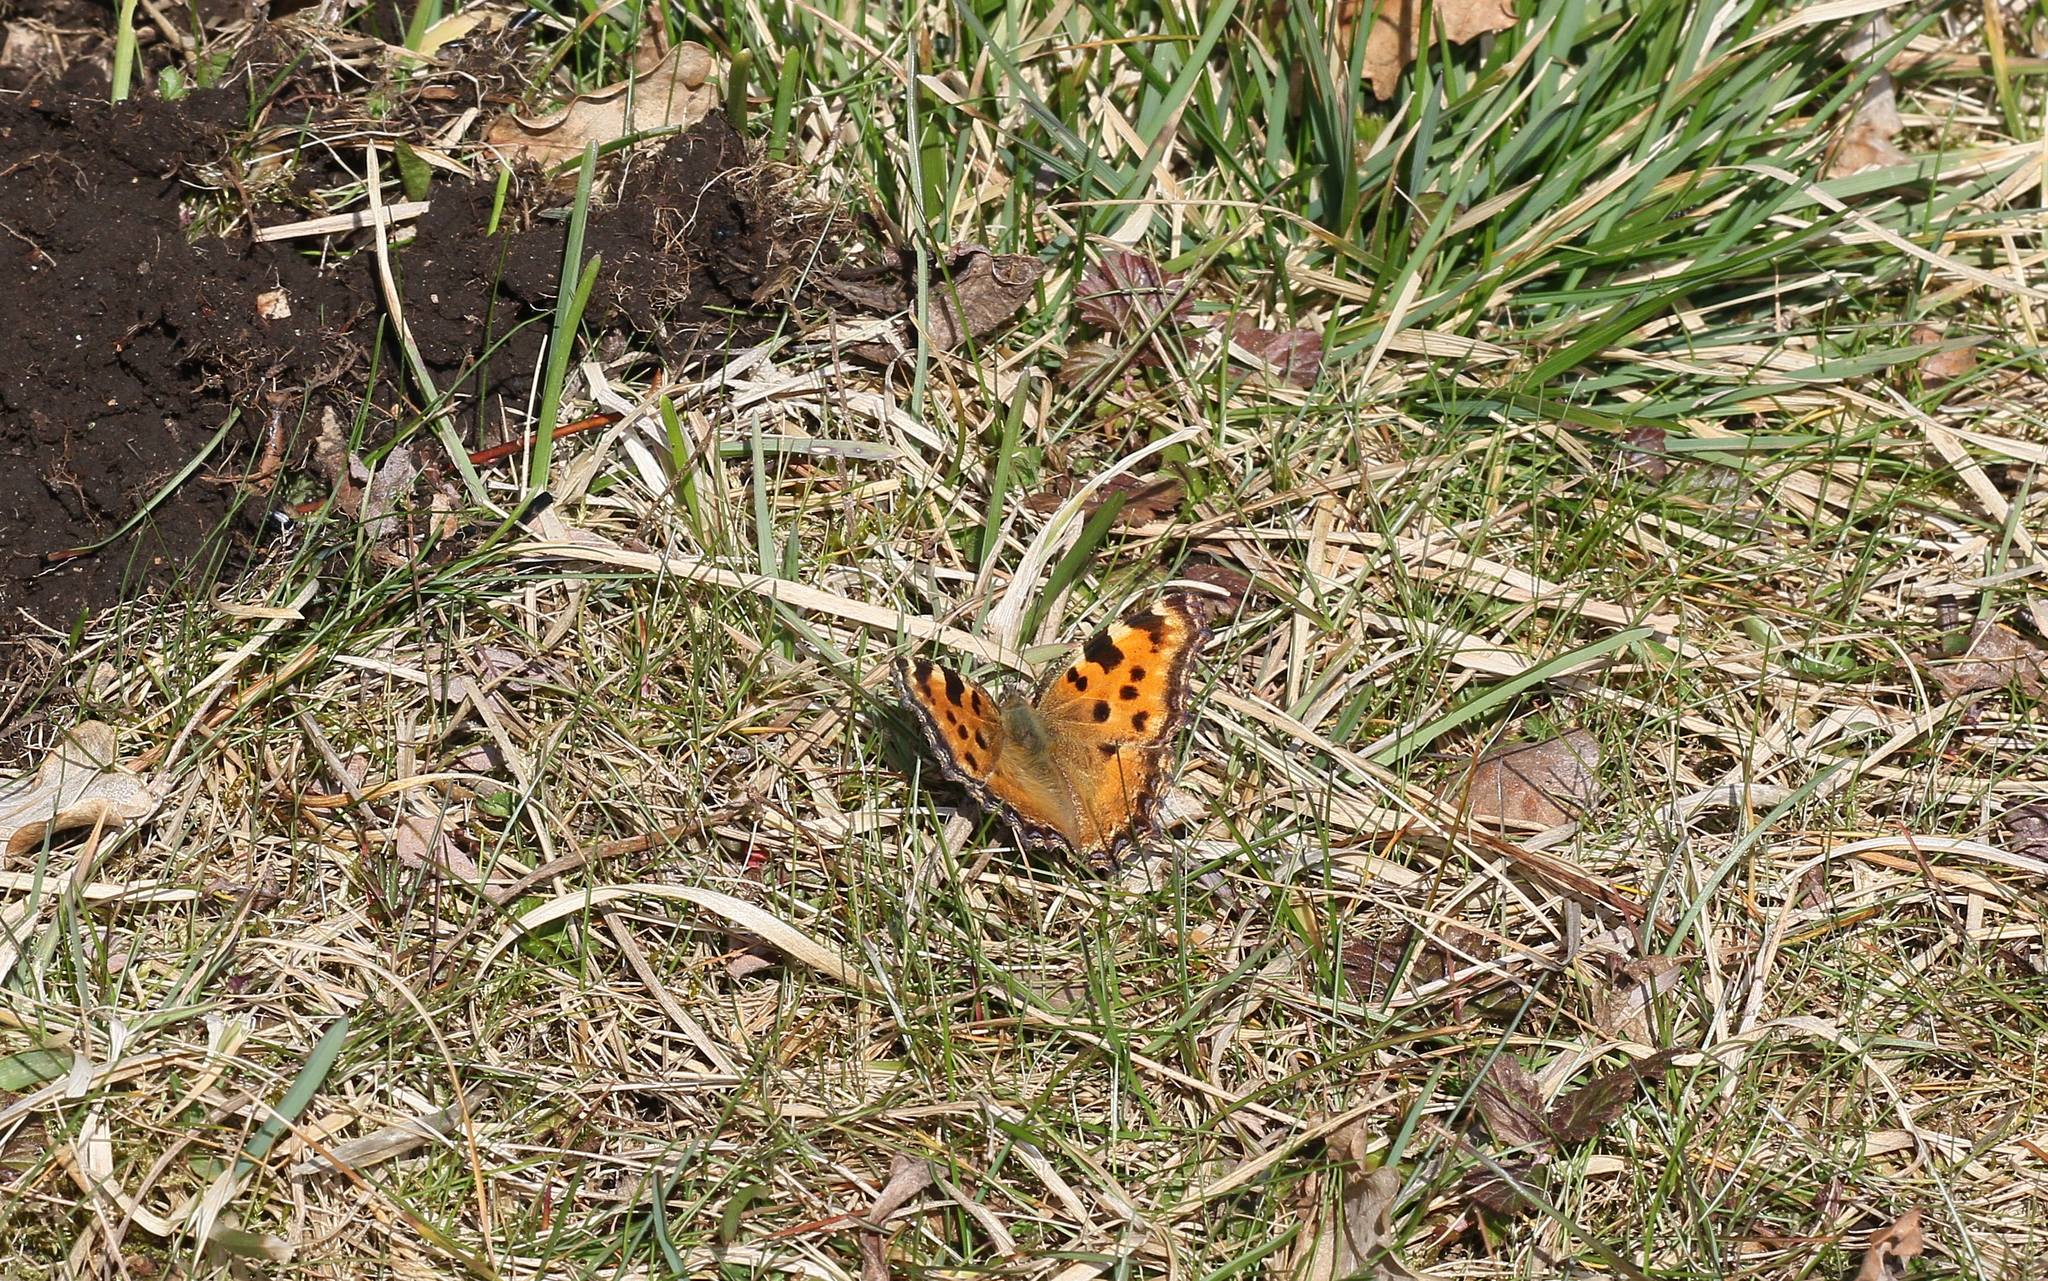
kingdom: Animalia
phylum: Arthropoda
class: Insecta
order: Lepidoptera
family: Nymphalidae
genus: Nymphalis
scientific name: Nymphalis polychloros
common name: Large tortoiseshell
